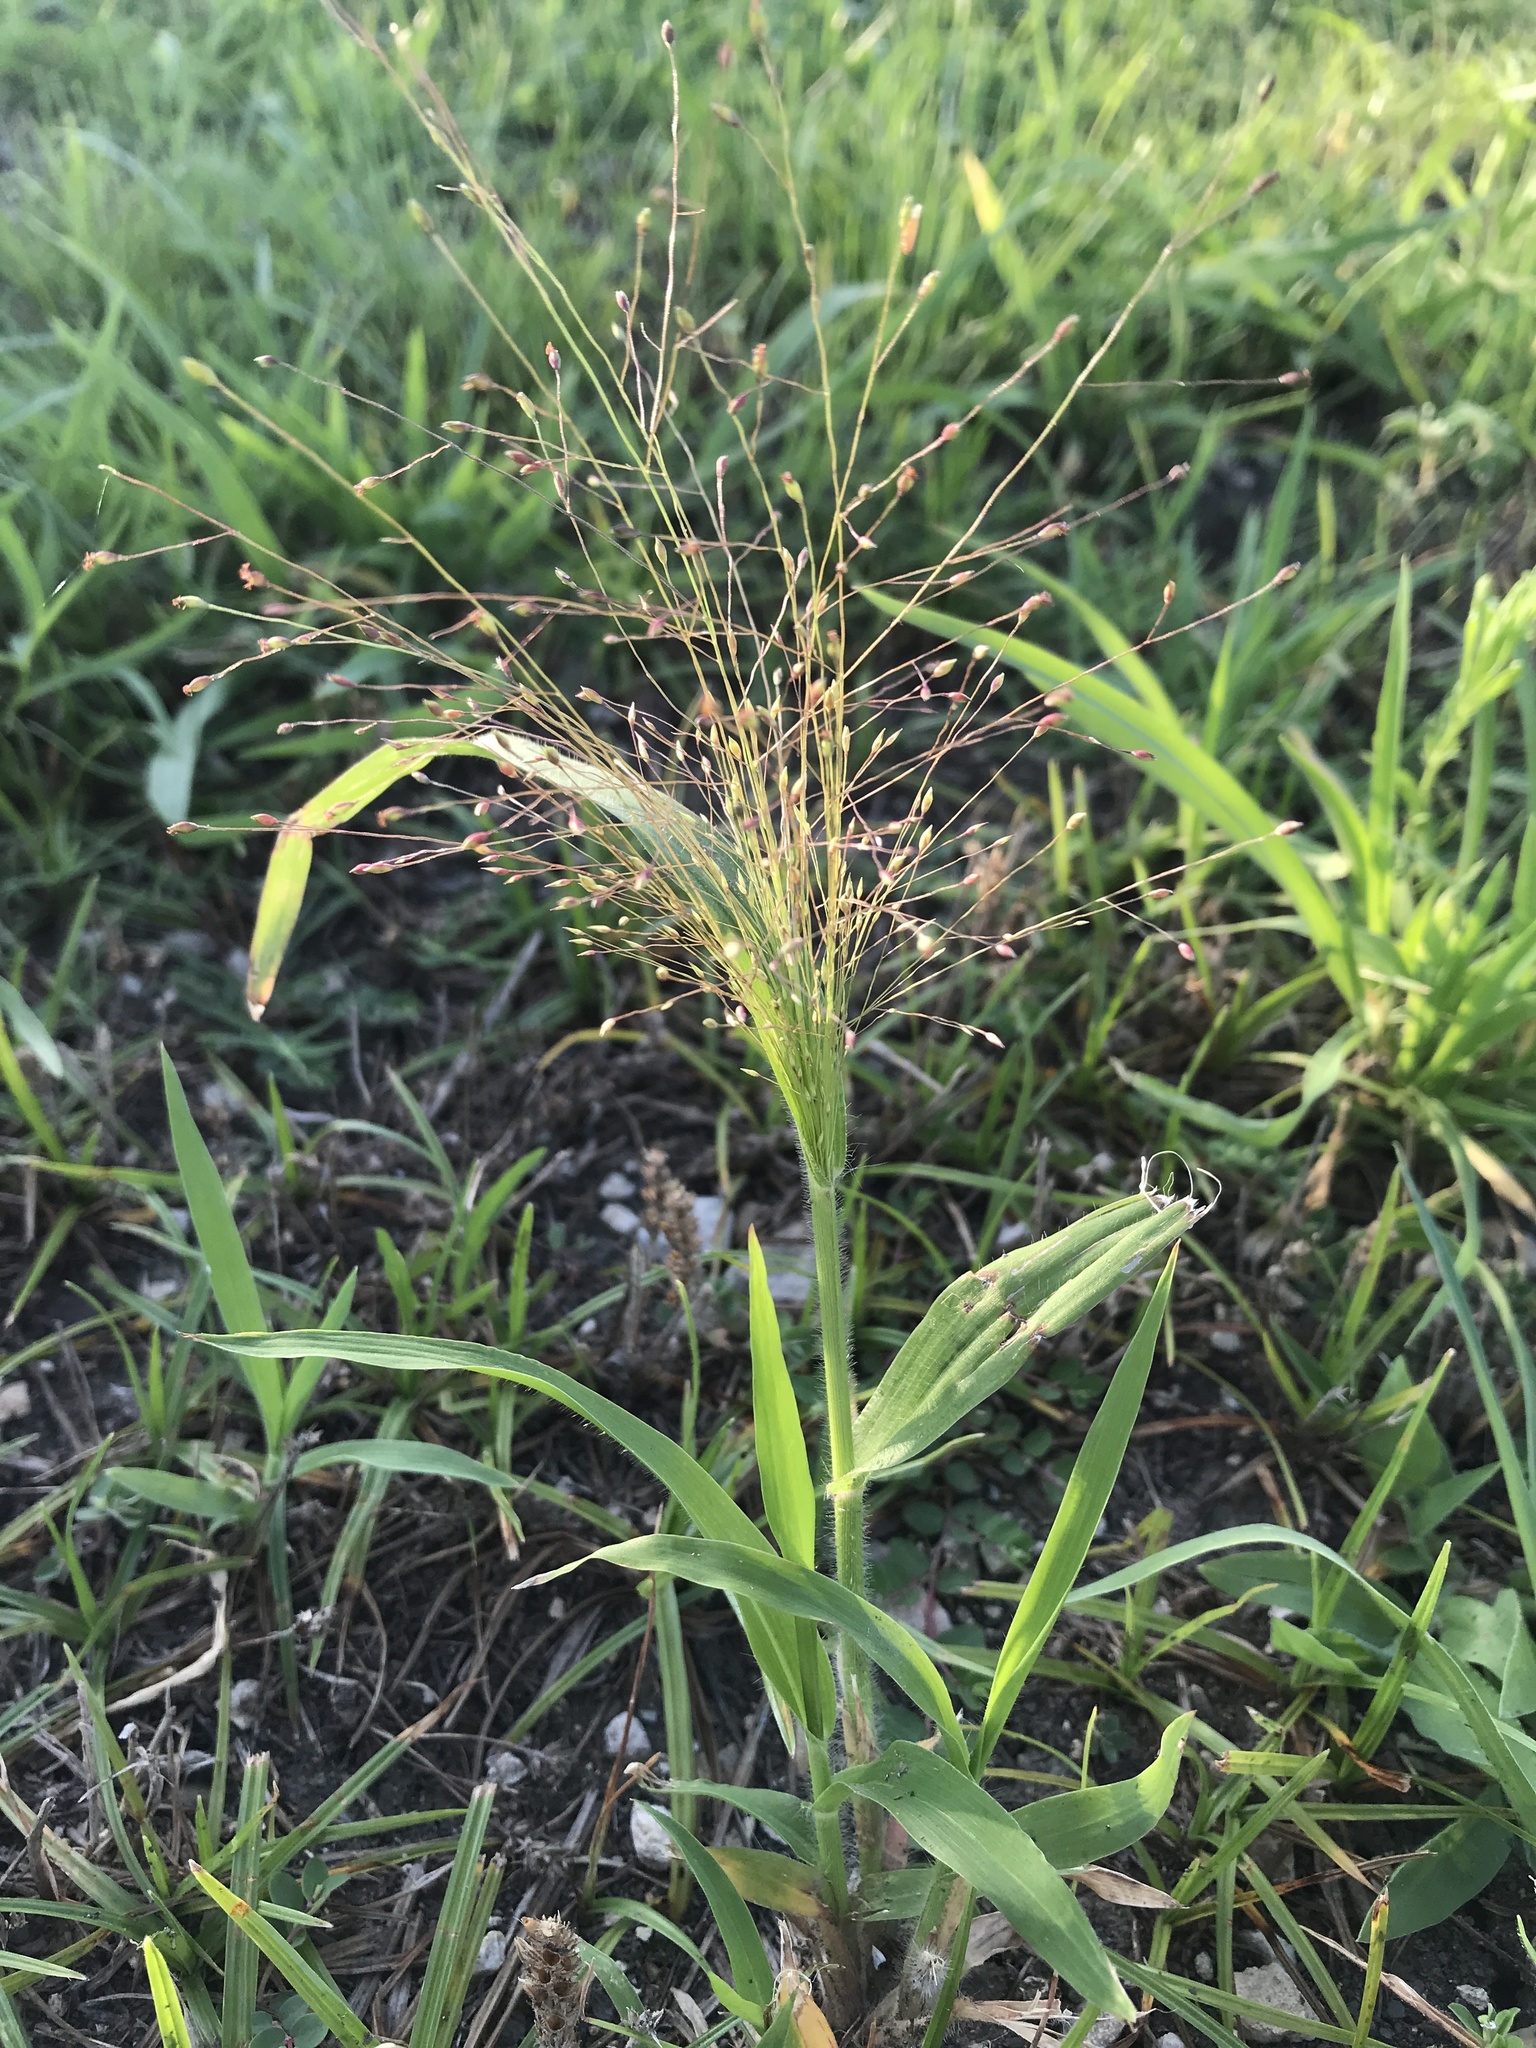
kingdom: Plantae
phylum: Tracheophyta
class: Liliopsida
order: Poales
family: Poaceae
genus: Panicum
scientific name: Panicum capillare
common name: Witch-grass
